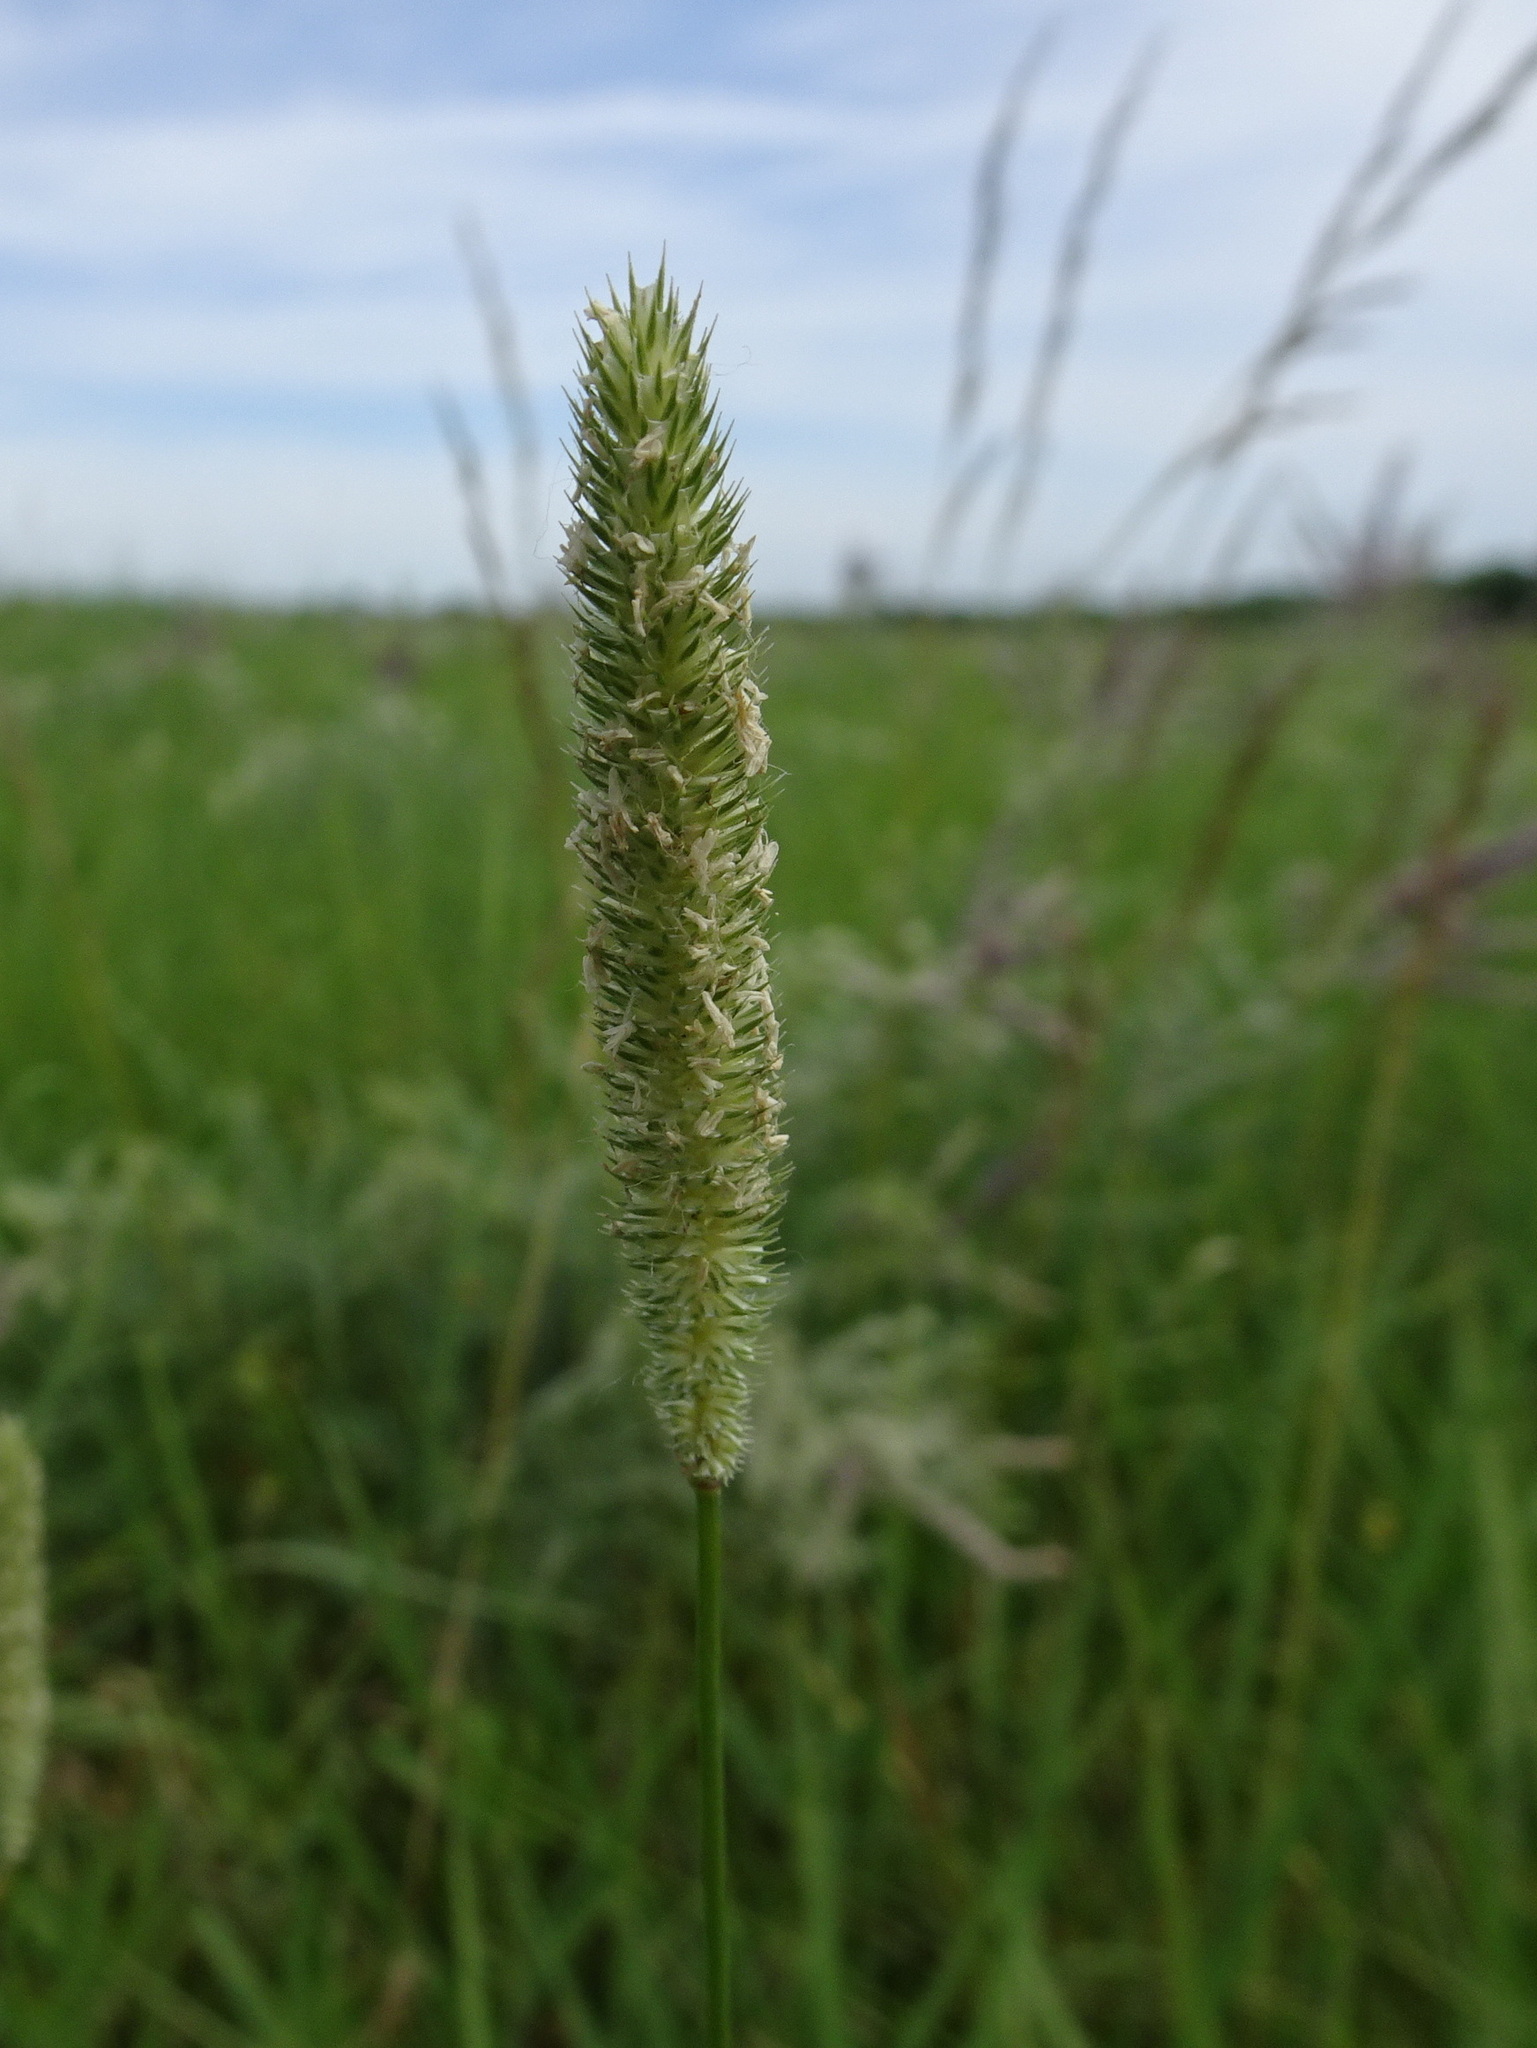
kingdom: Plantae
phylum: Tracheophyta
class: Liliopsida
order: Poales
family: Poaceae
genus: Phleum
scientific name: Phleum pratense
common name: Timothy grass
